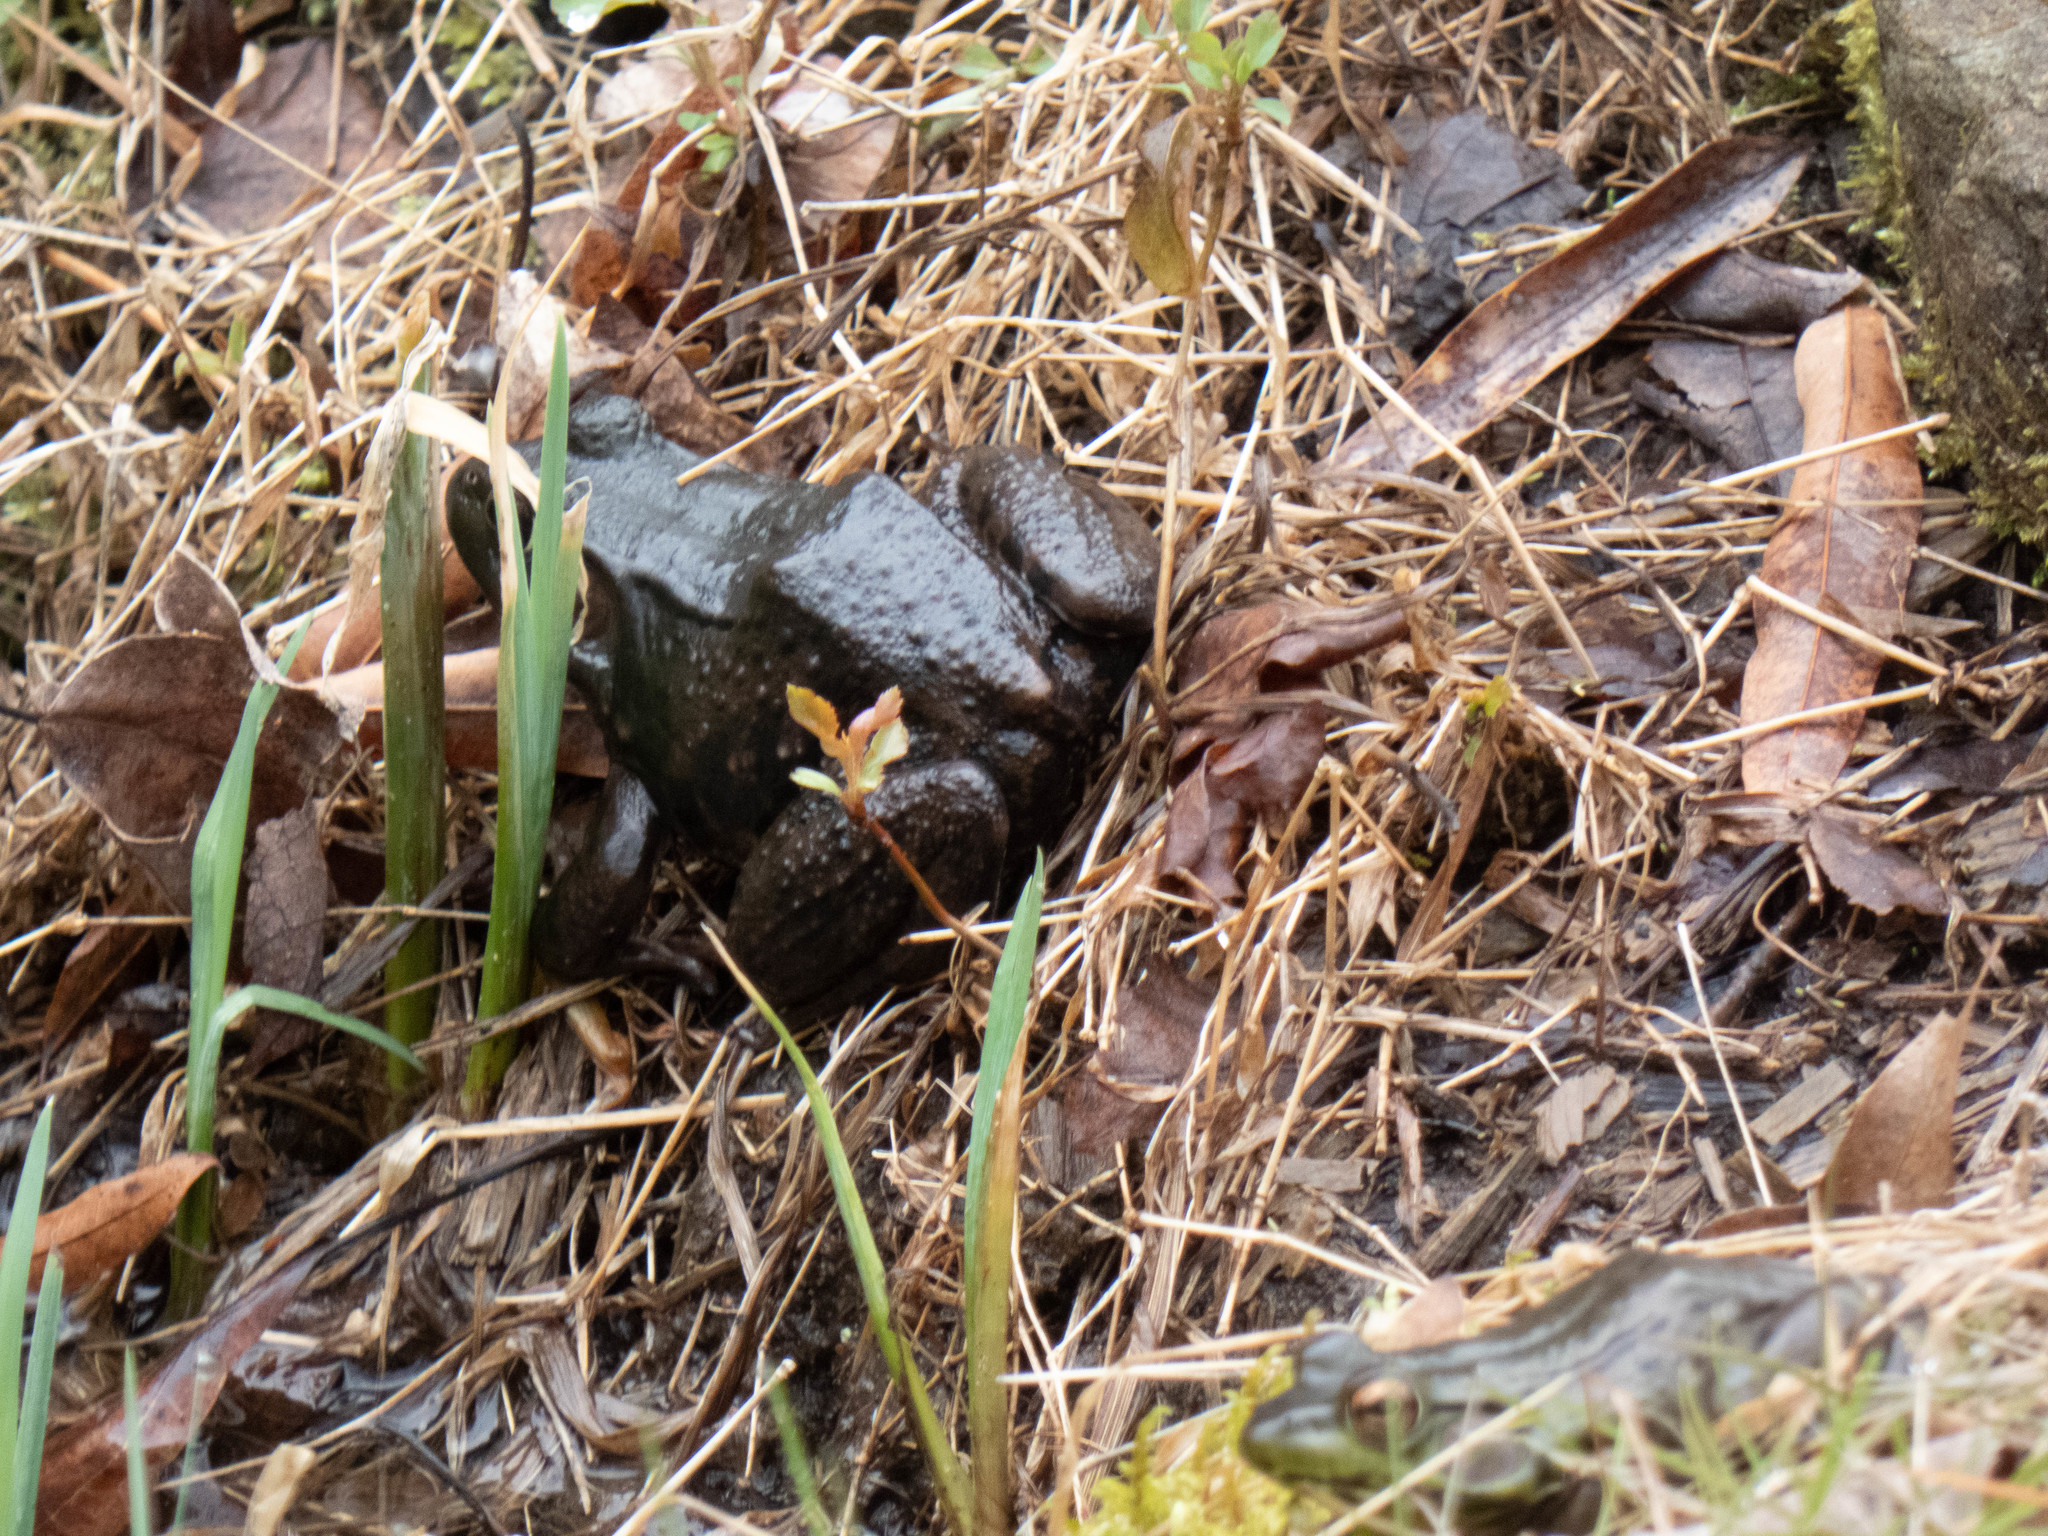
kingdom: Animalia
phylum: Chordata
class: Amphibia
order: Anura
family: Ranidae
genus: Lithobates
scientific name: Lithobates clamitans
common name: Green frog
